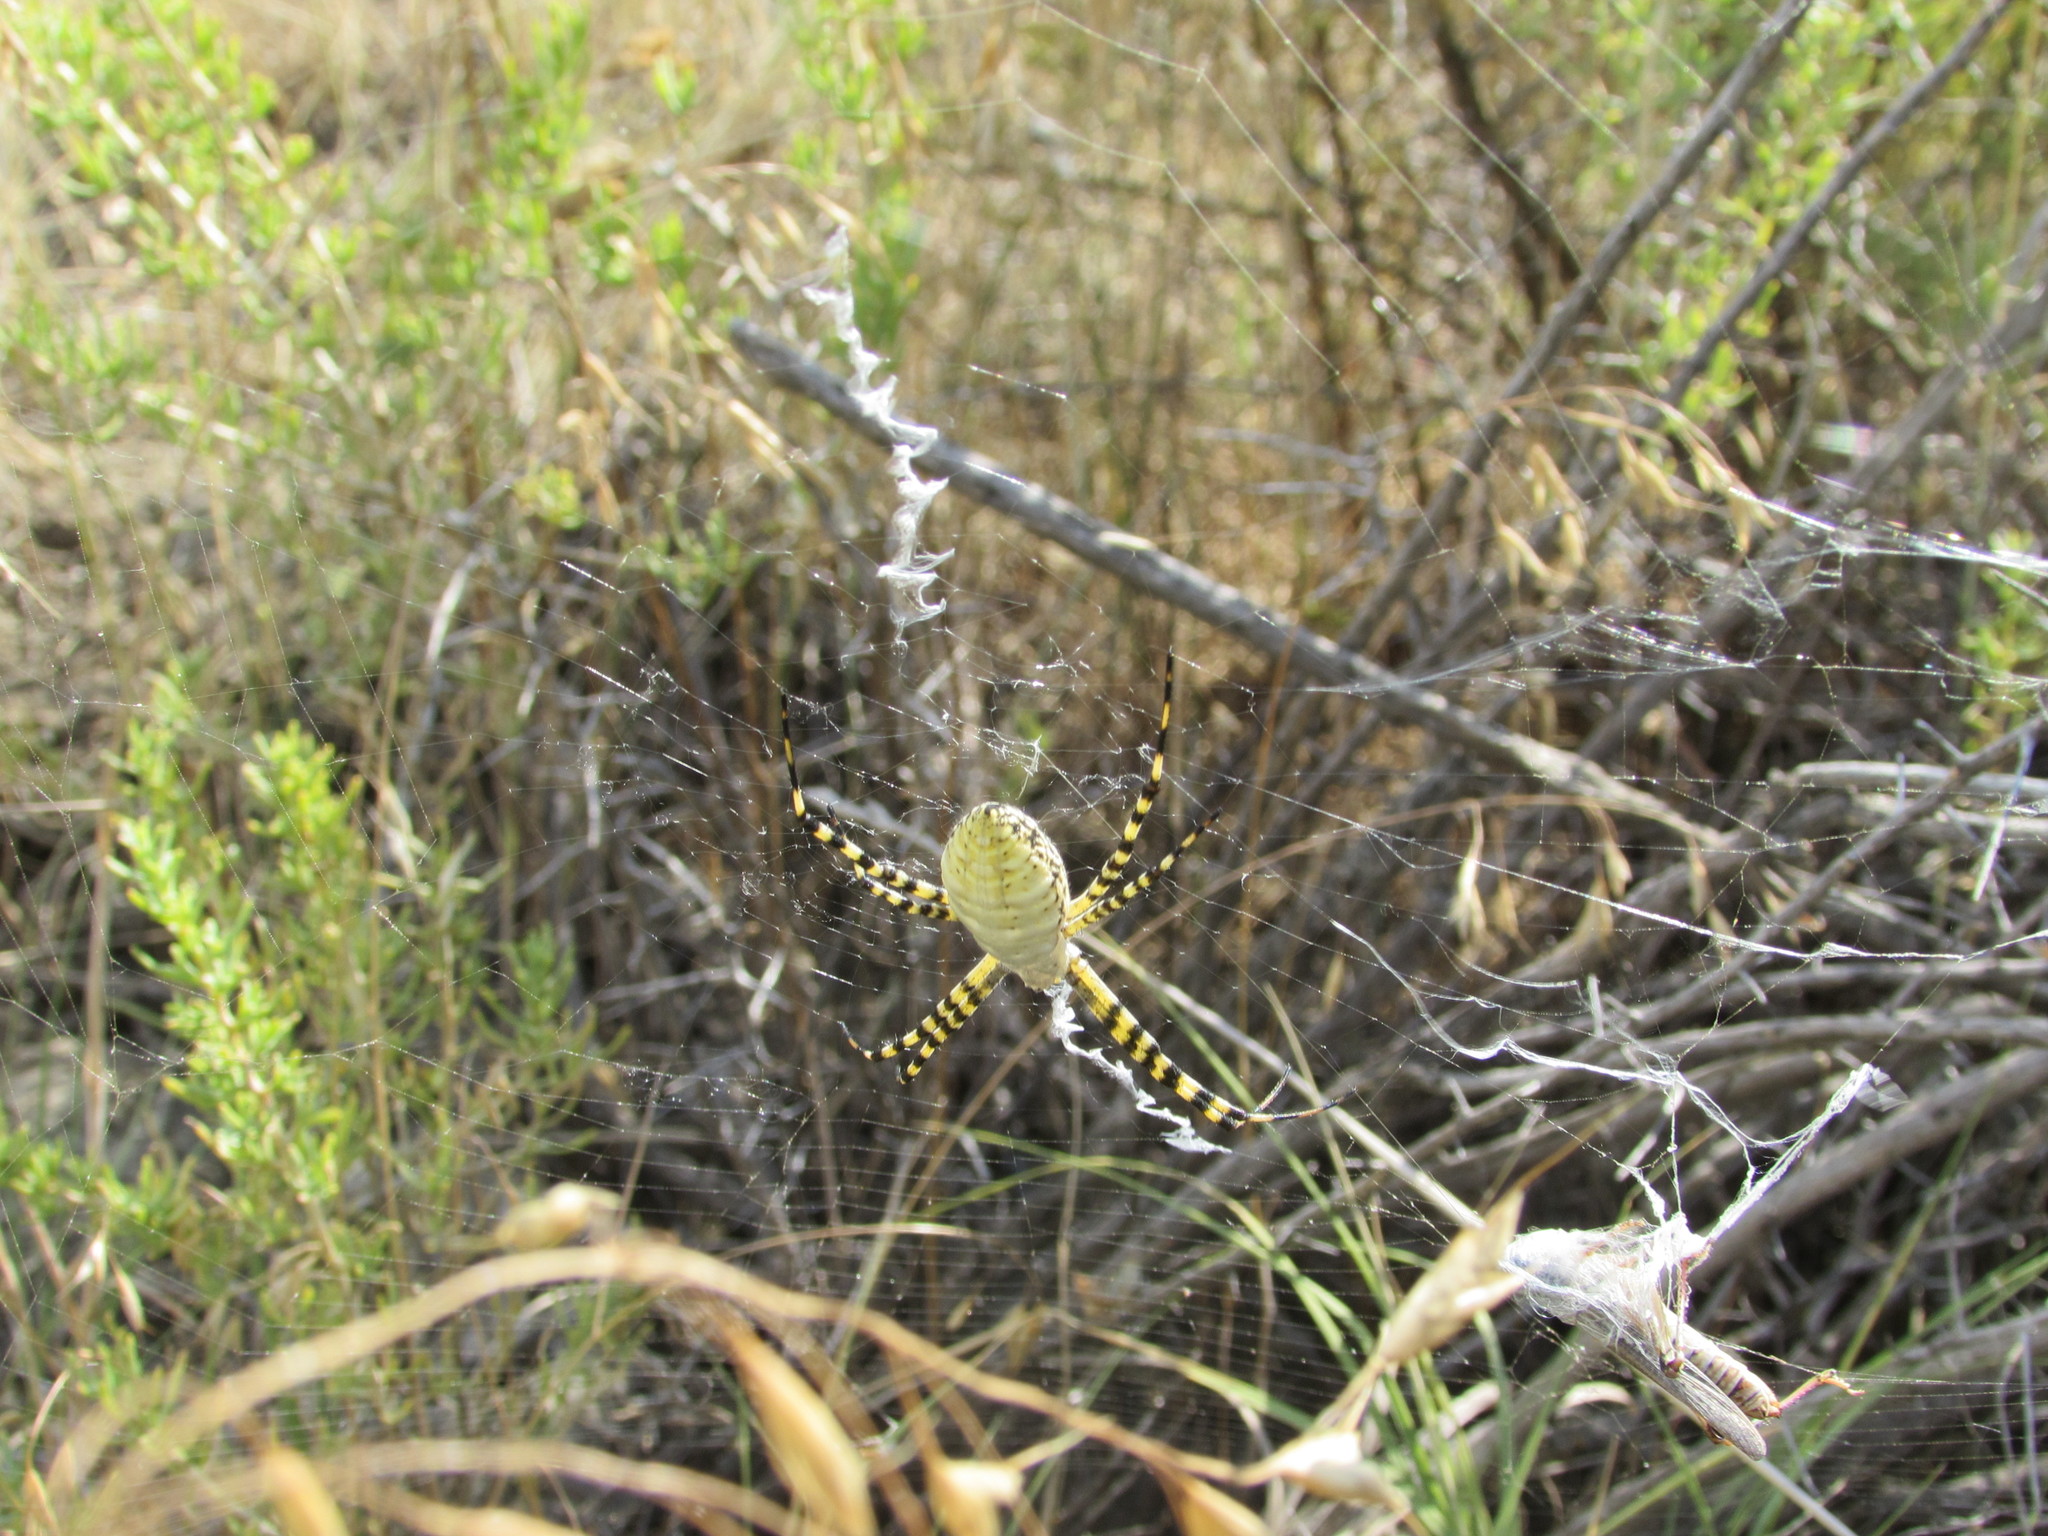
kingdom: Animalia
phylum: Arthropoda
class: Arachnida
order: Araneae
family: Araneidae
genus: Argiope
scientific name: Argiope trifasciata
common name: Banded garden spider
